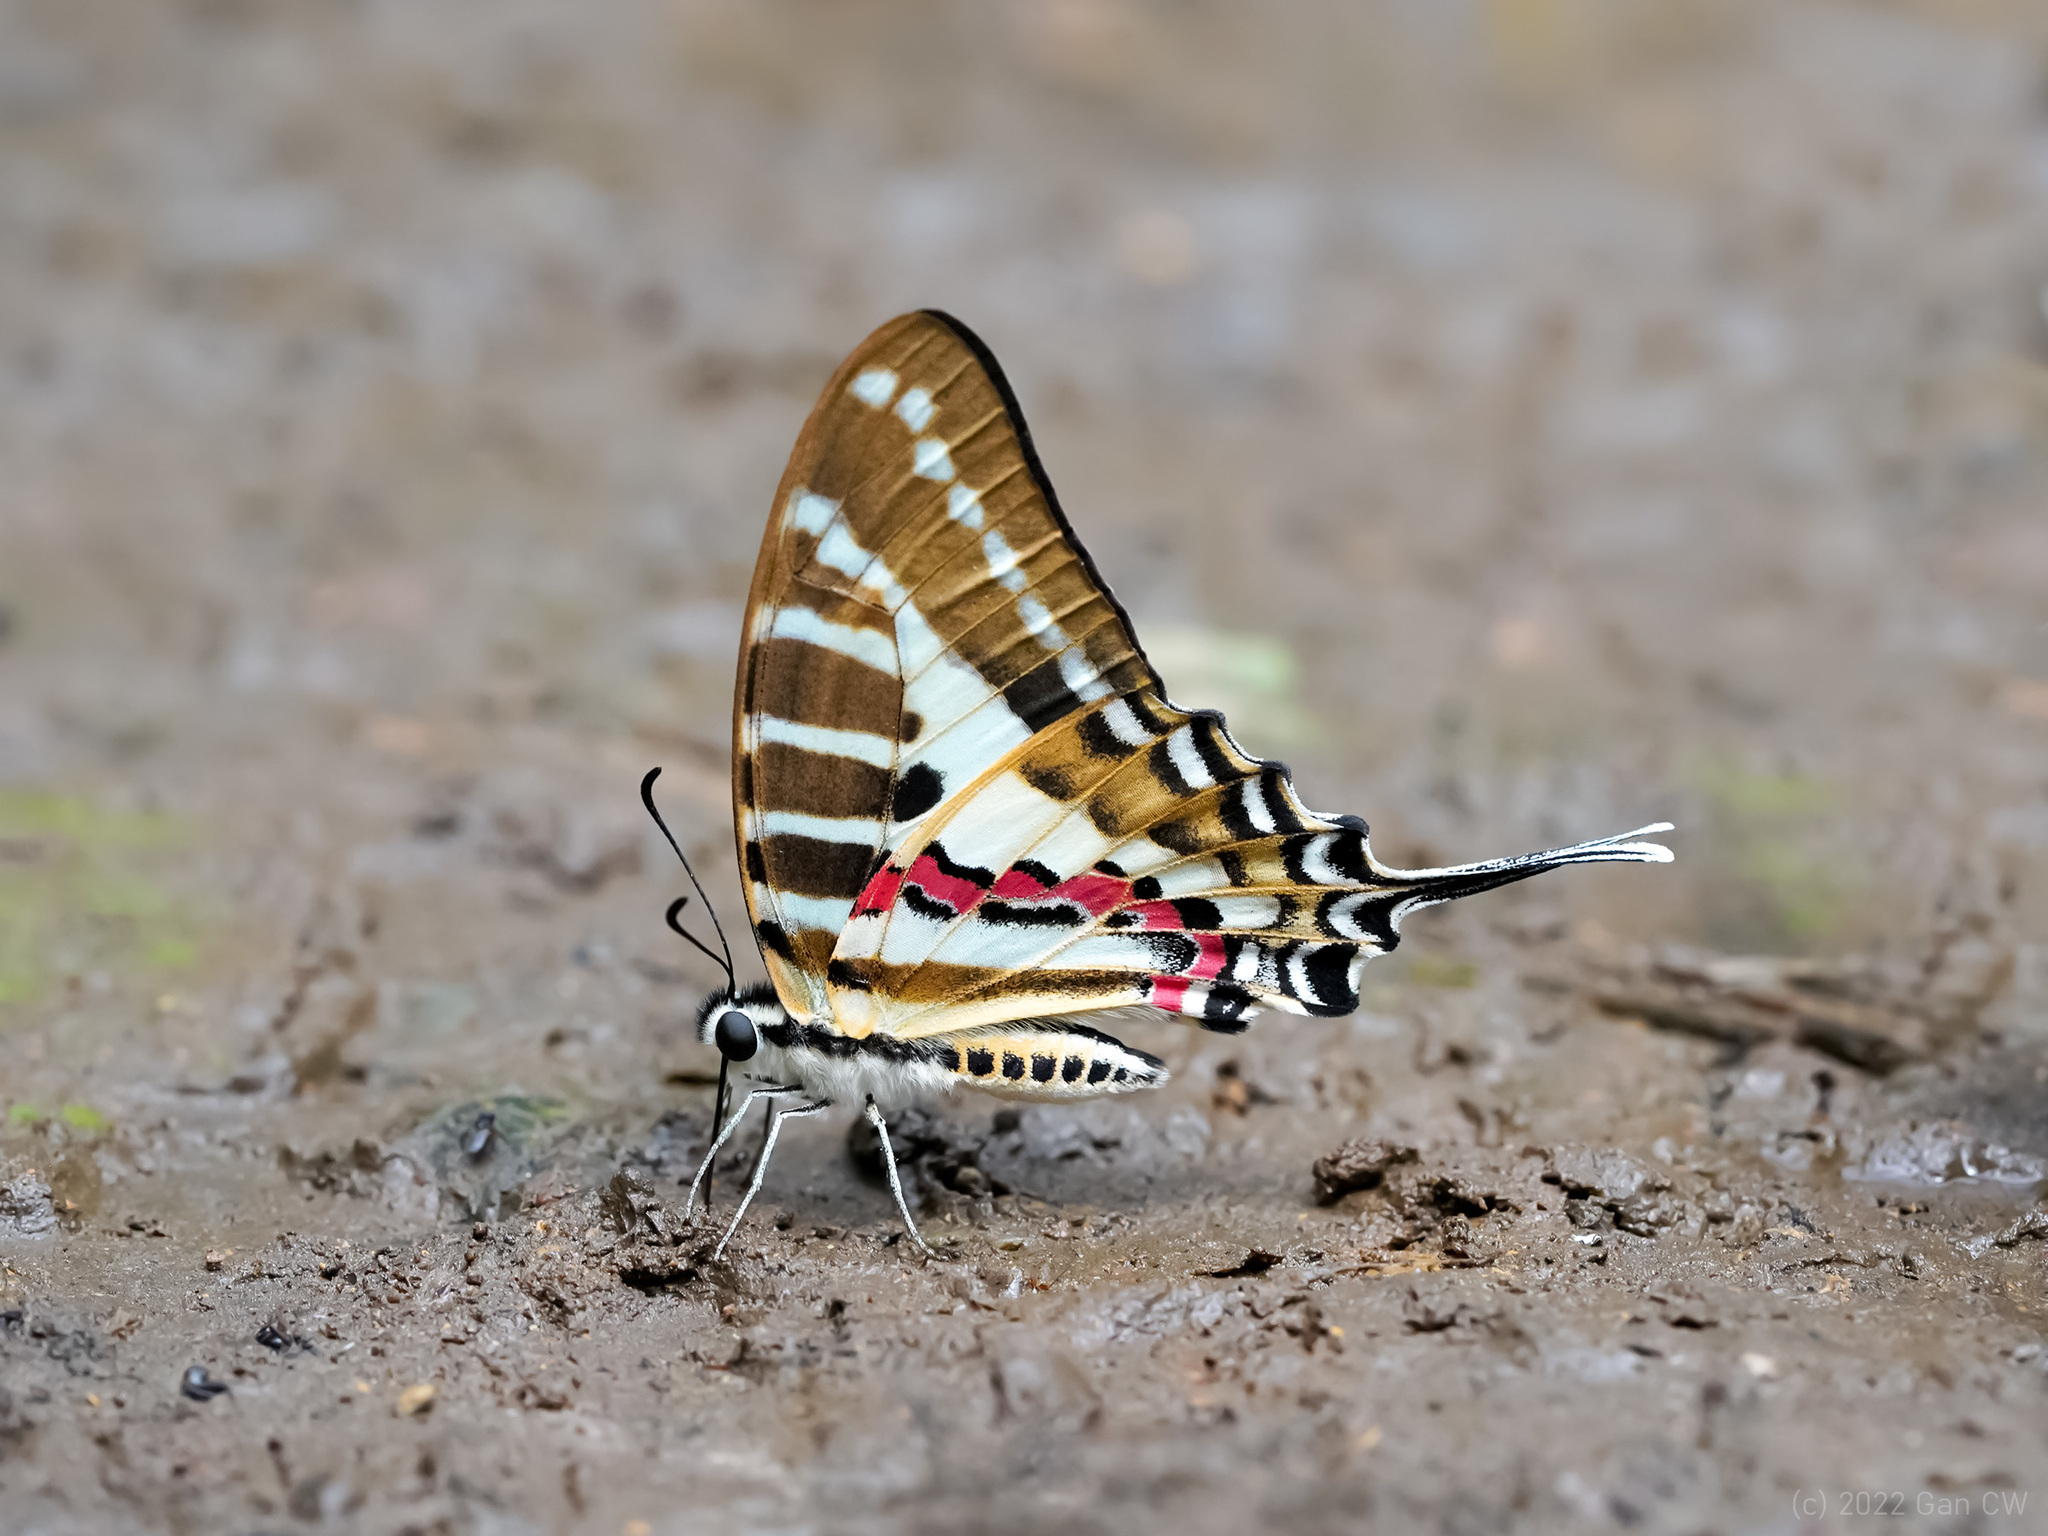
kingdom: Animalia
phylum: Arthropoda
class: Insecta
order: Lepidoptera
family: Papilionidae
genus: Graphium
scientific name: Graphium nomius
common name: Spot swordtail
